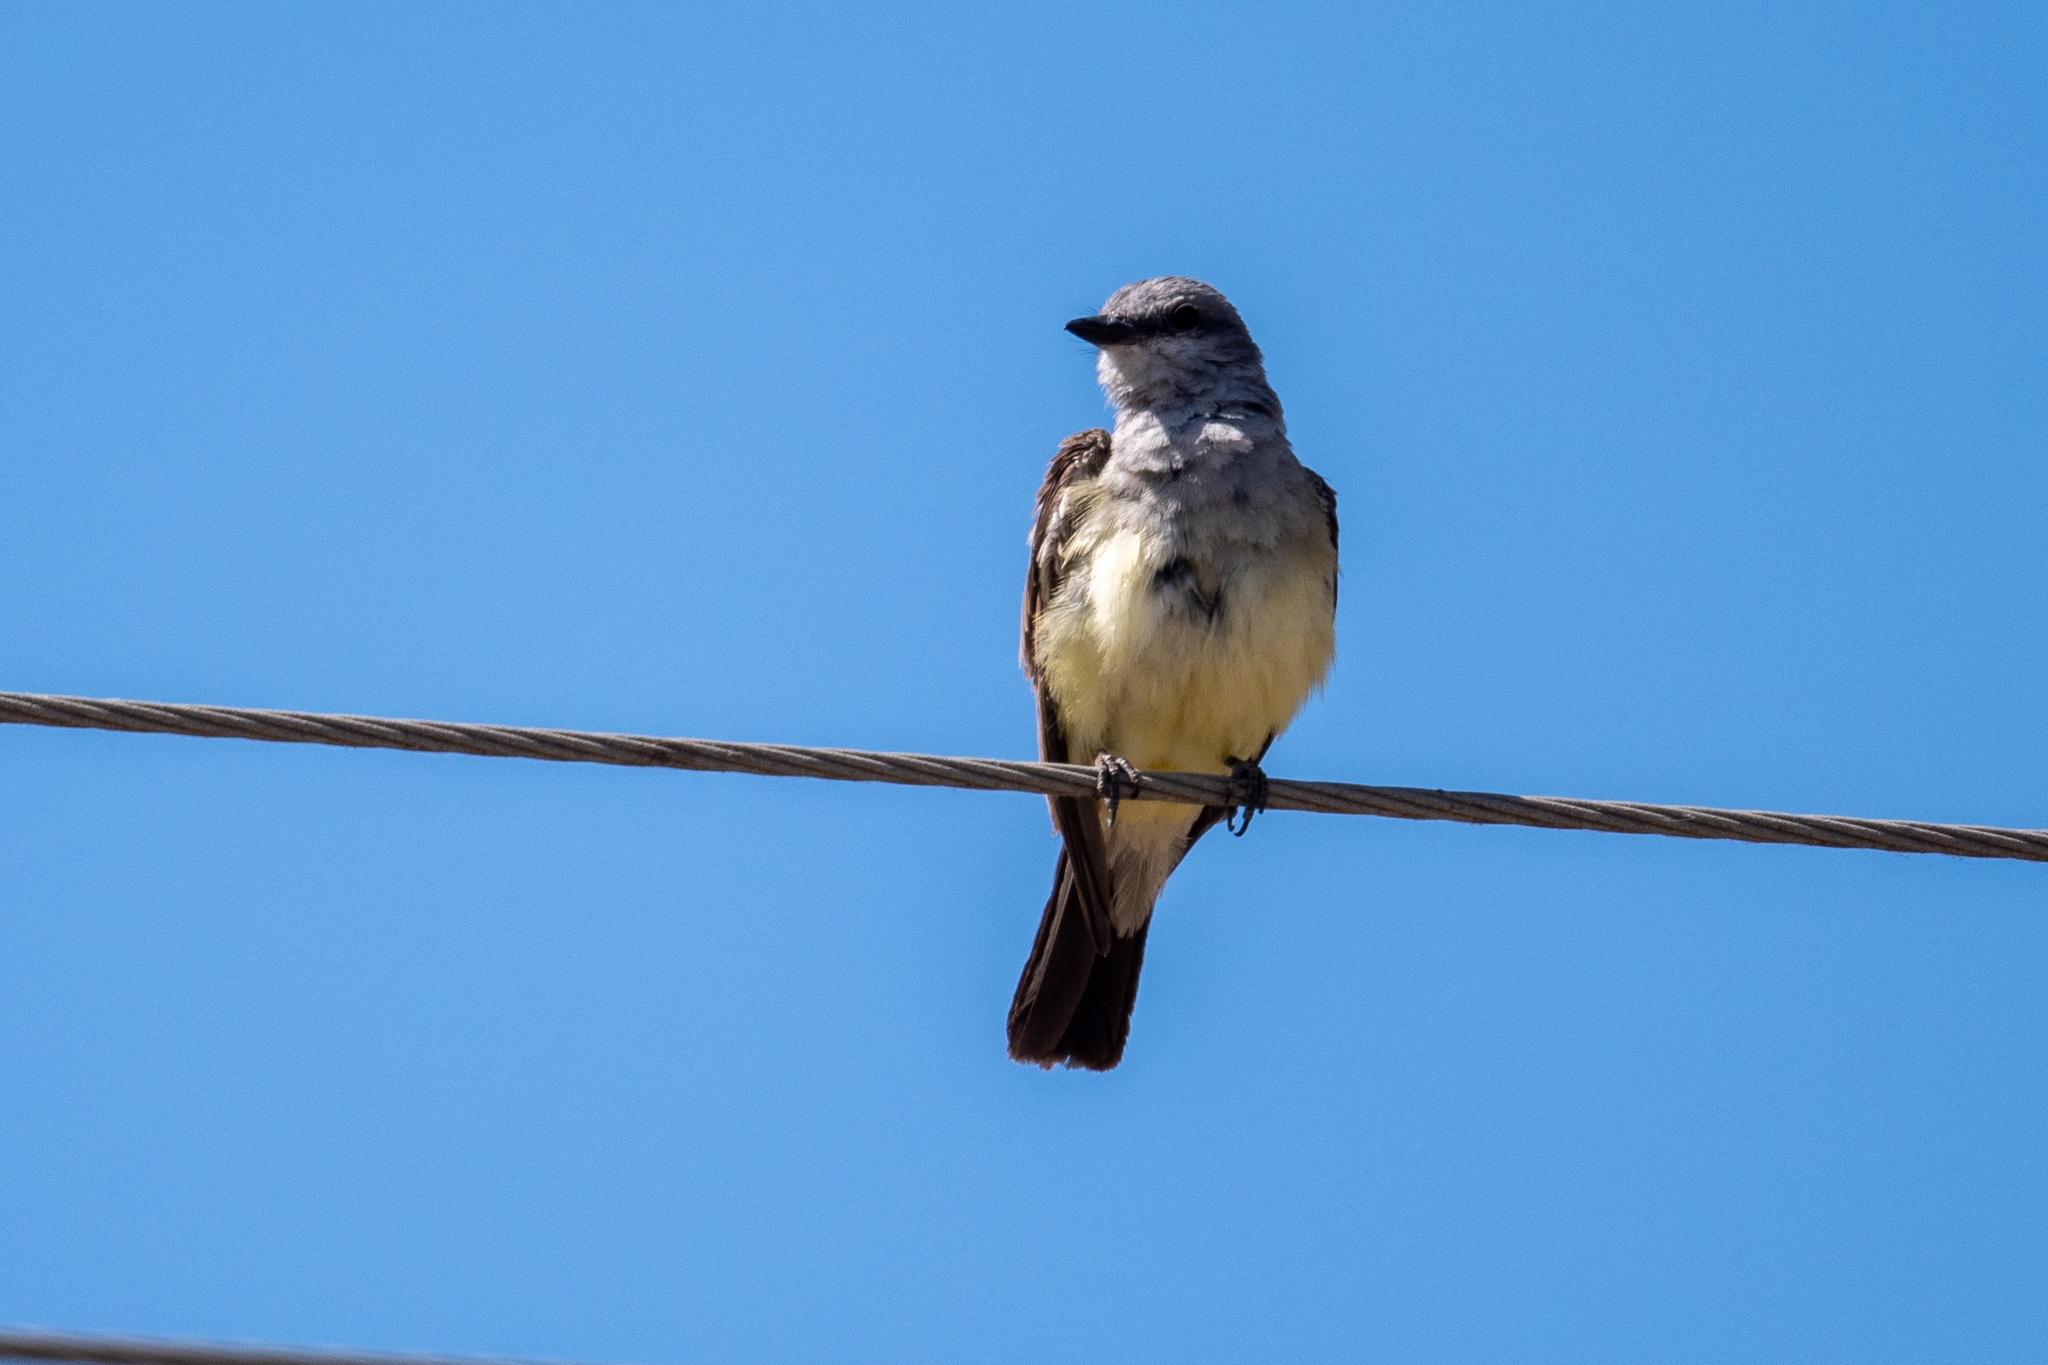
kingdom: Animalia
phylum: Chordata
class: Aves
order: Passeriformes
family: Tyrannidae
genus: Tyrannus
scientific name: Tyrannus verticalis
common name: Western kingbird
